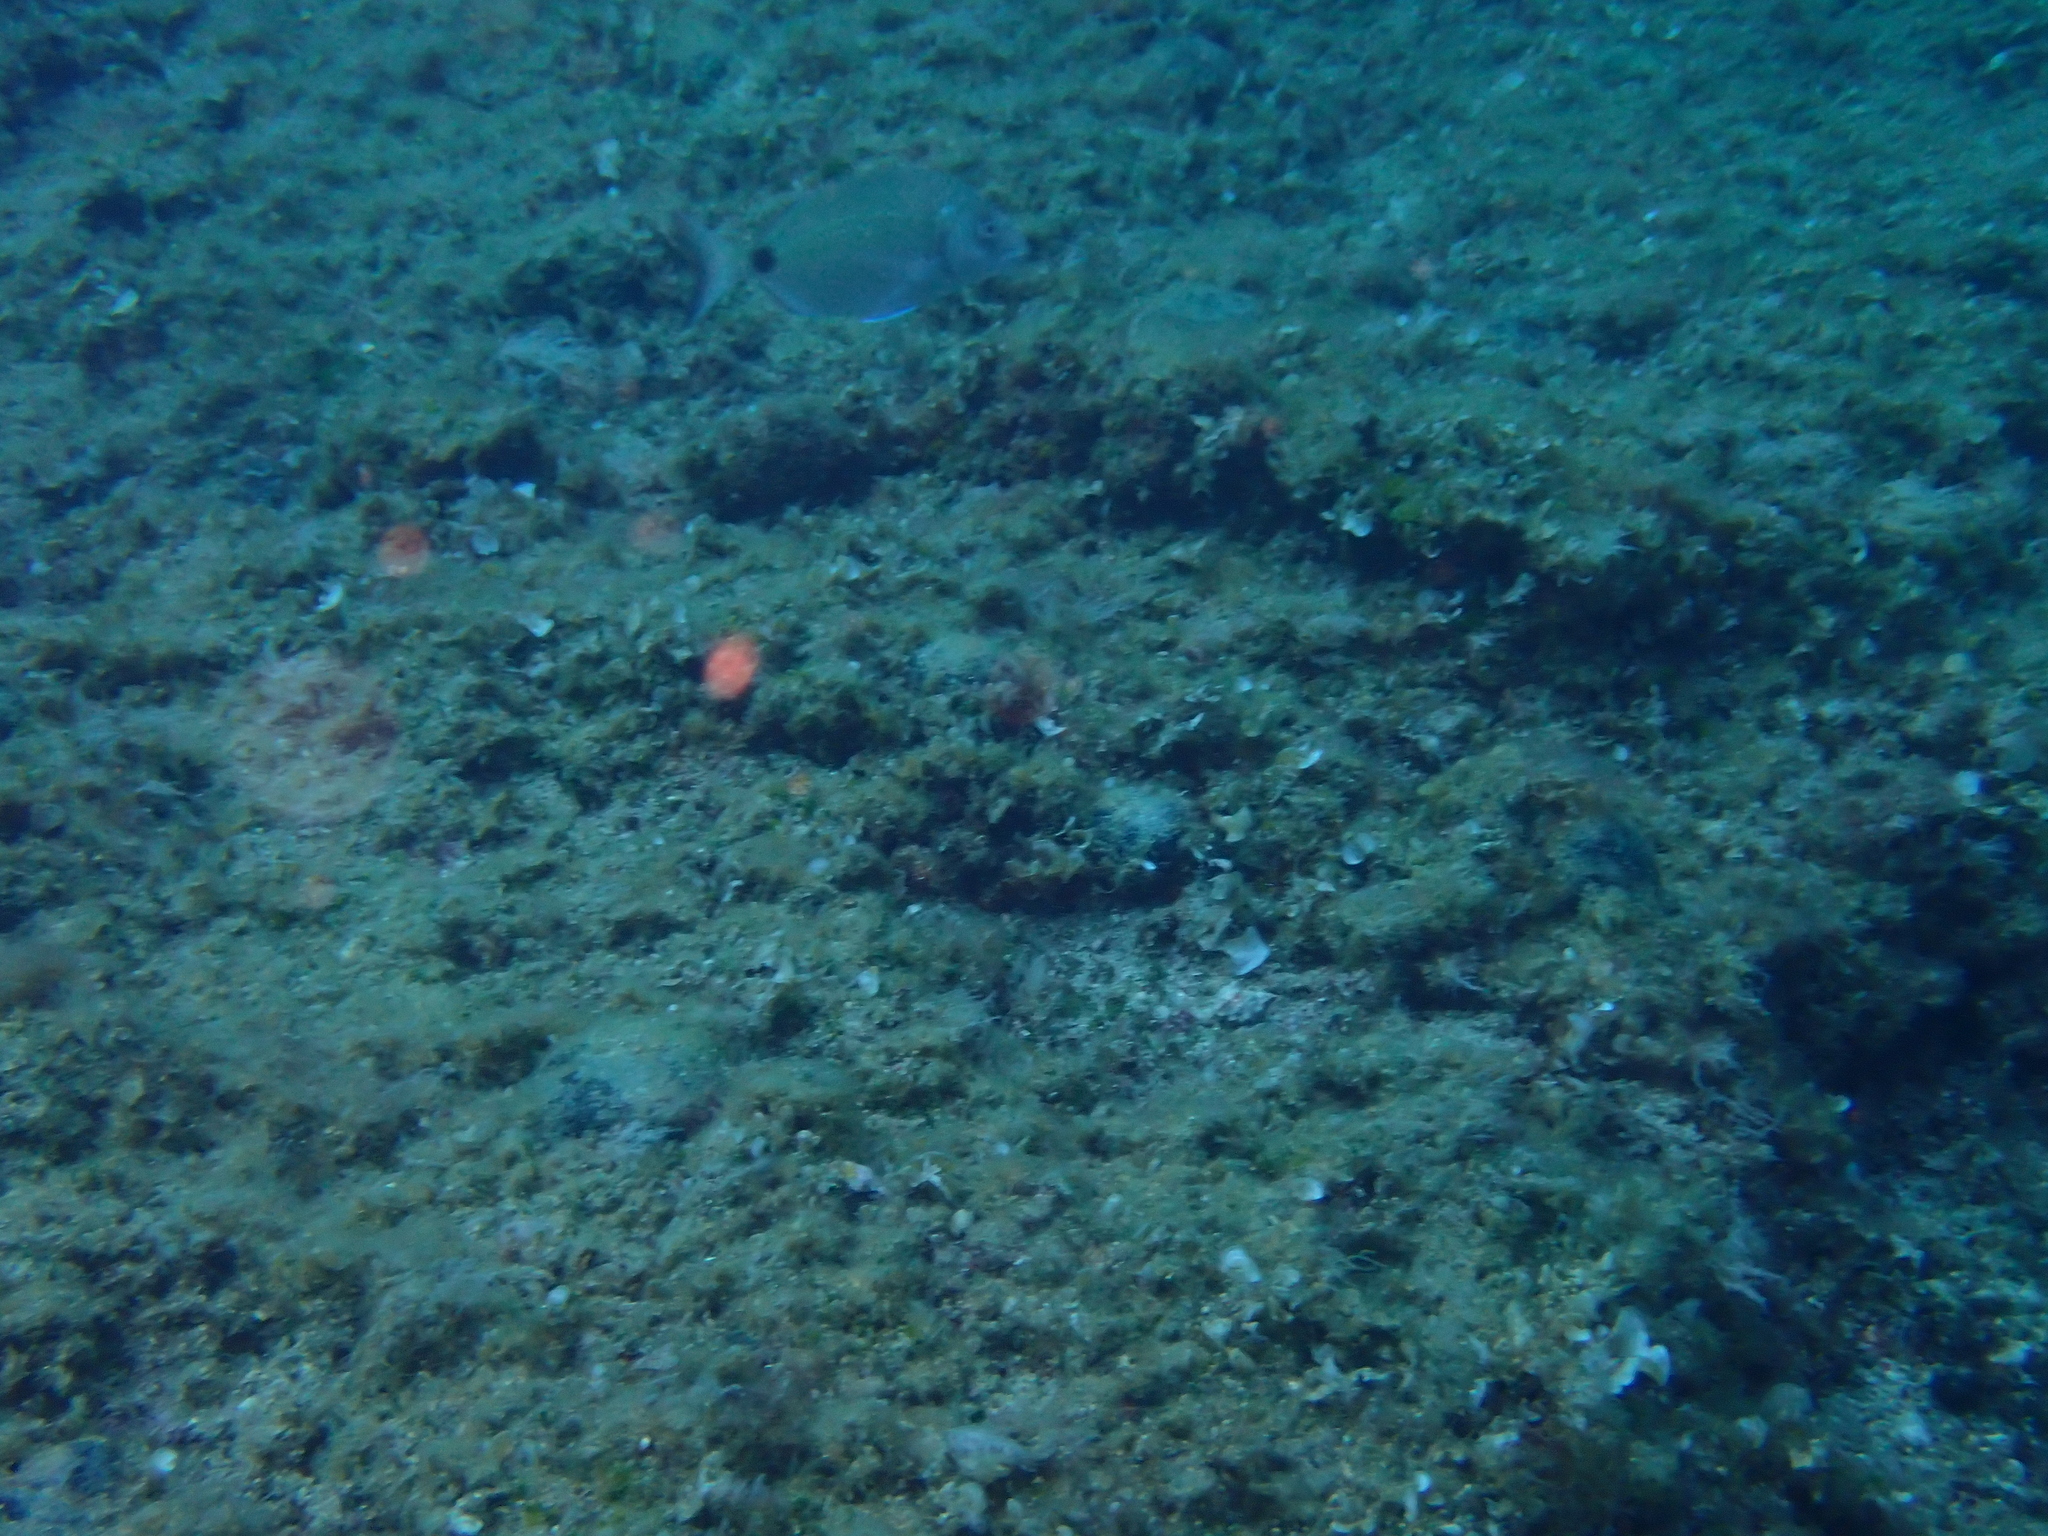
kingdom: Animalia
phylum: Chordata
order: Perciformes
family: Sparidae
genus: Diplodus
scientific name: Diplodus sargus
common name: White seabream
